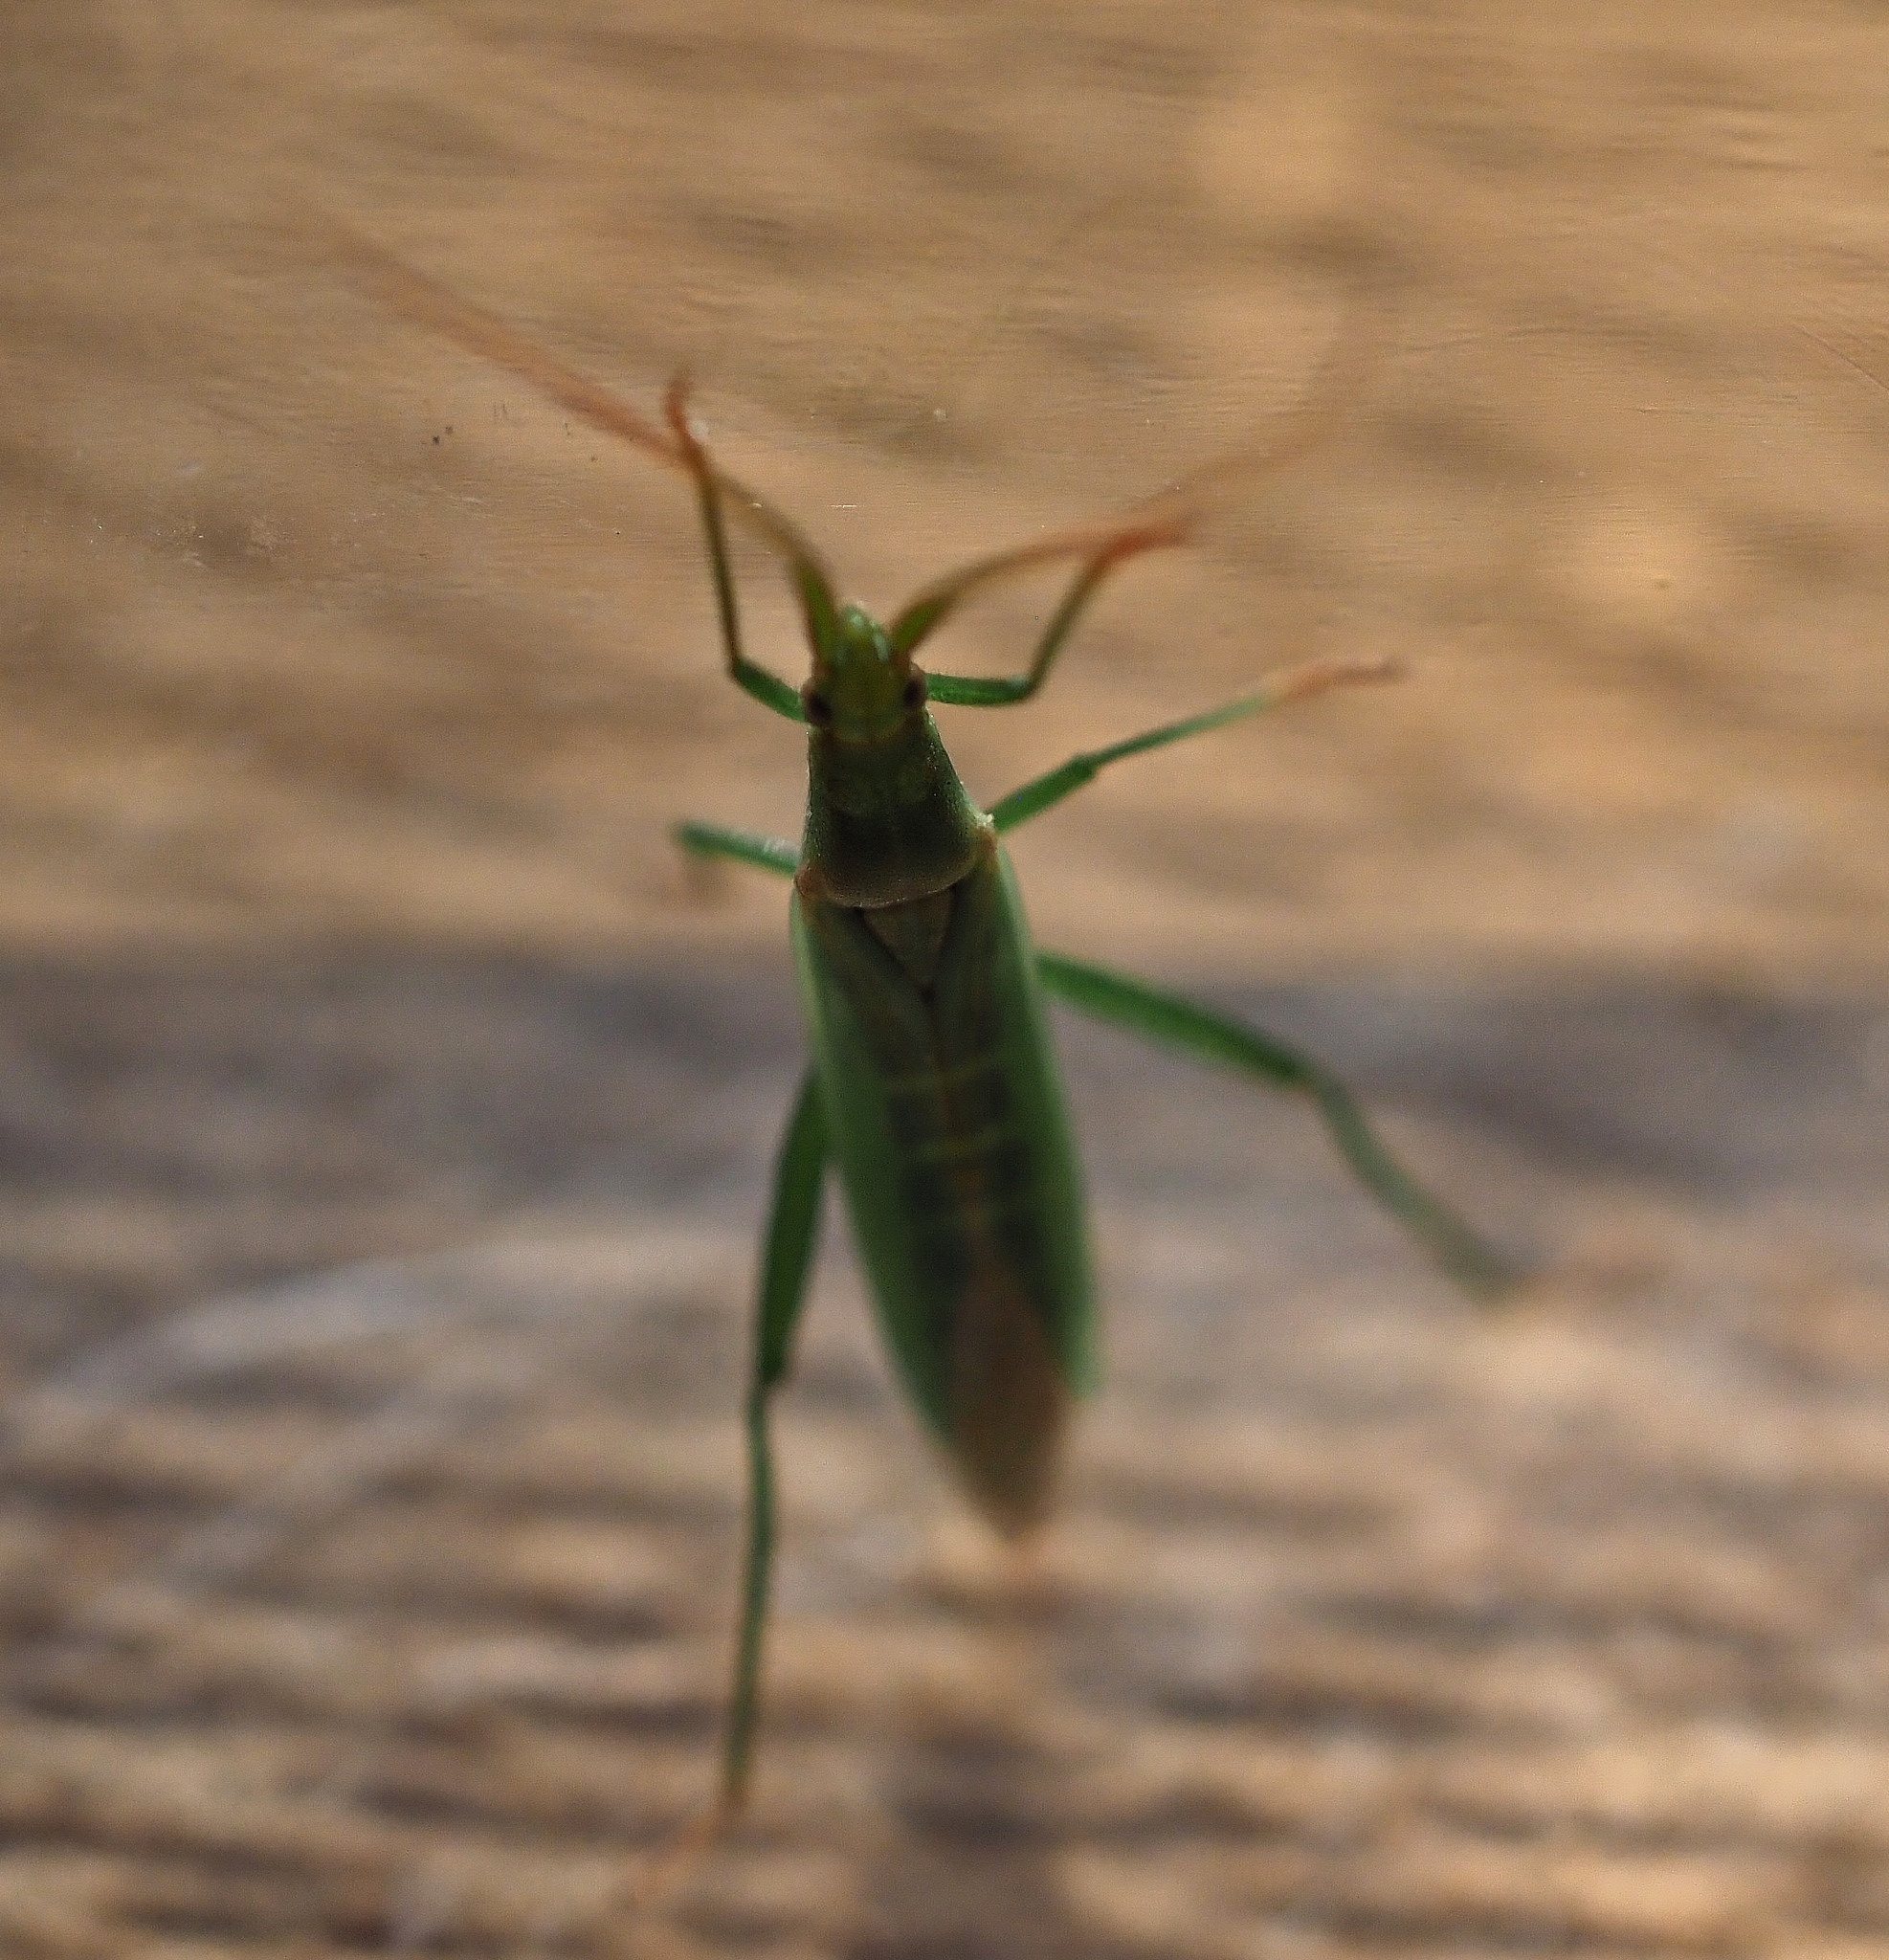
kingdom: Animalia
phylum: Arthropoda
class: Insecta
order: Hemiptera
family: Miridae
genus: Stenodema
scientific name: Stenodema laevigata
